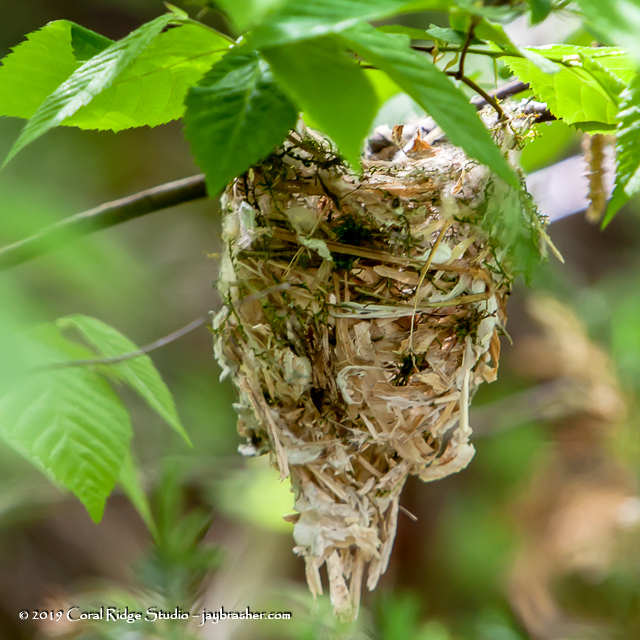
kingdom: Animalia
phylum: Chordata
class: Aves
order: Passeriformes
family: Vireonidae
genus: Vireo
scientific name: Vireo griseus
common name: White-eyed vireo
